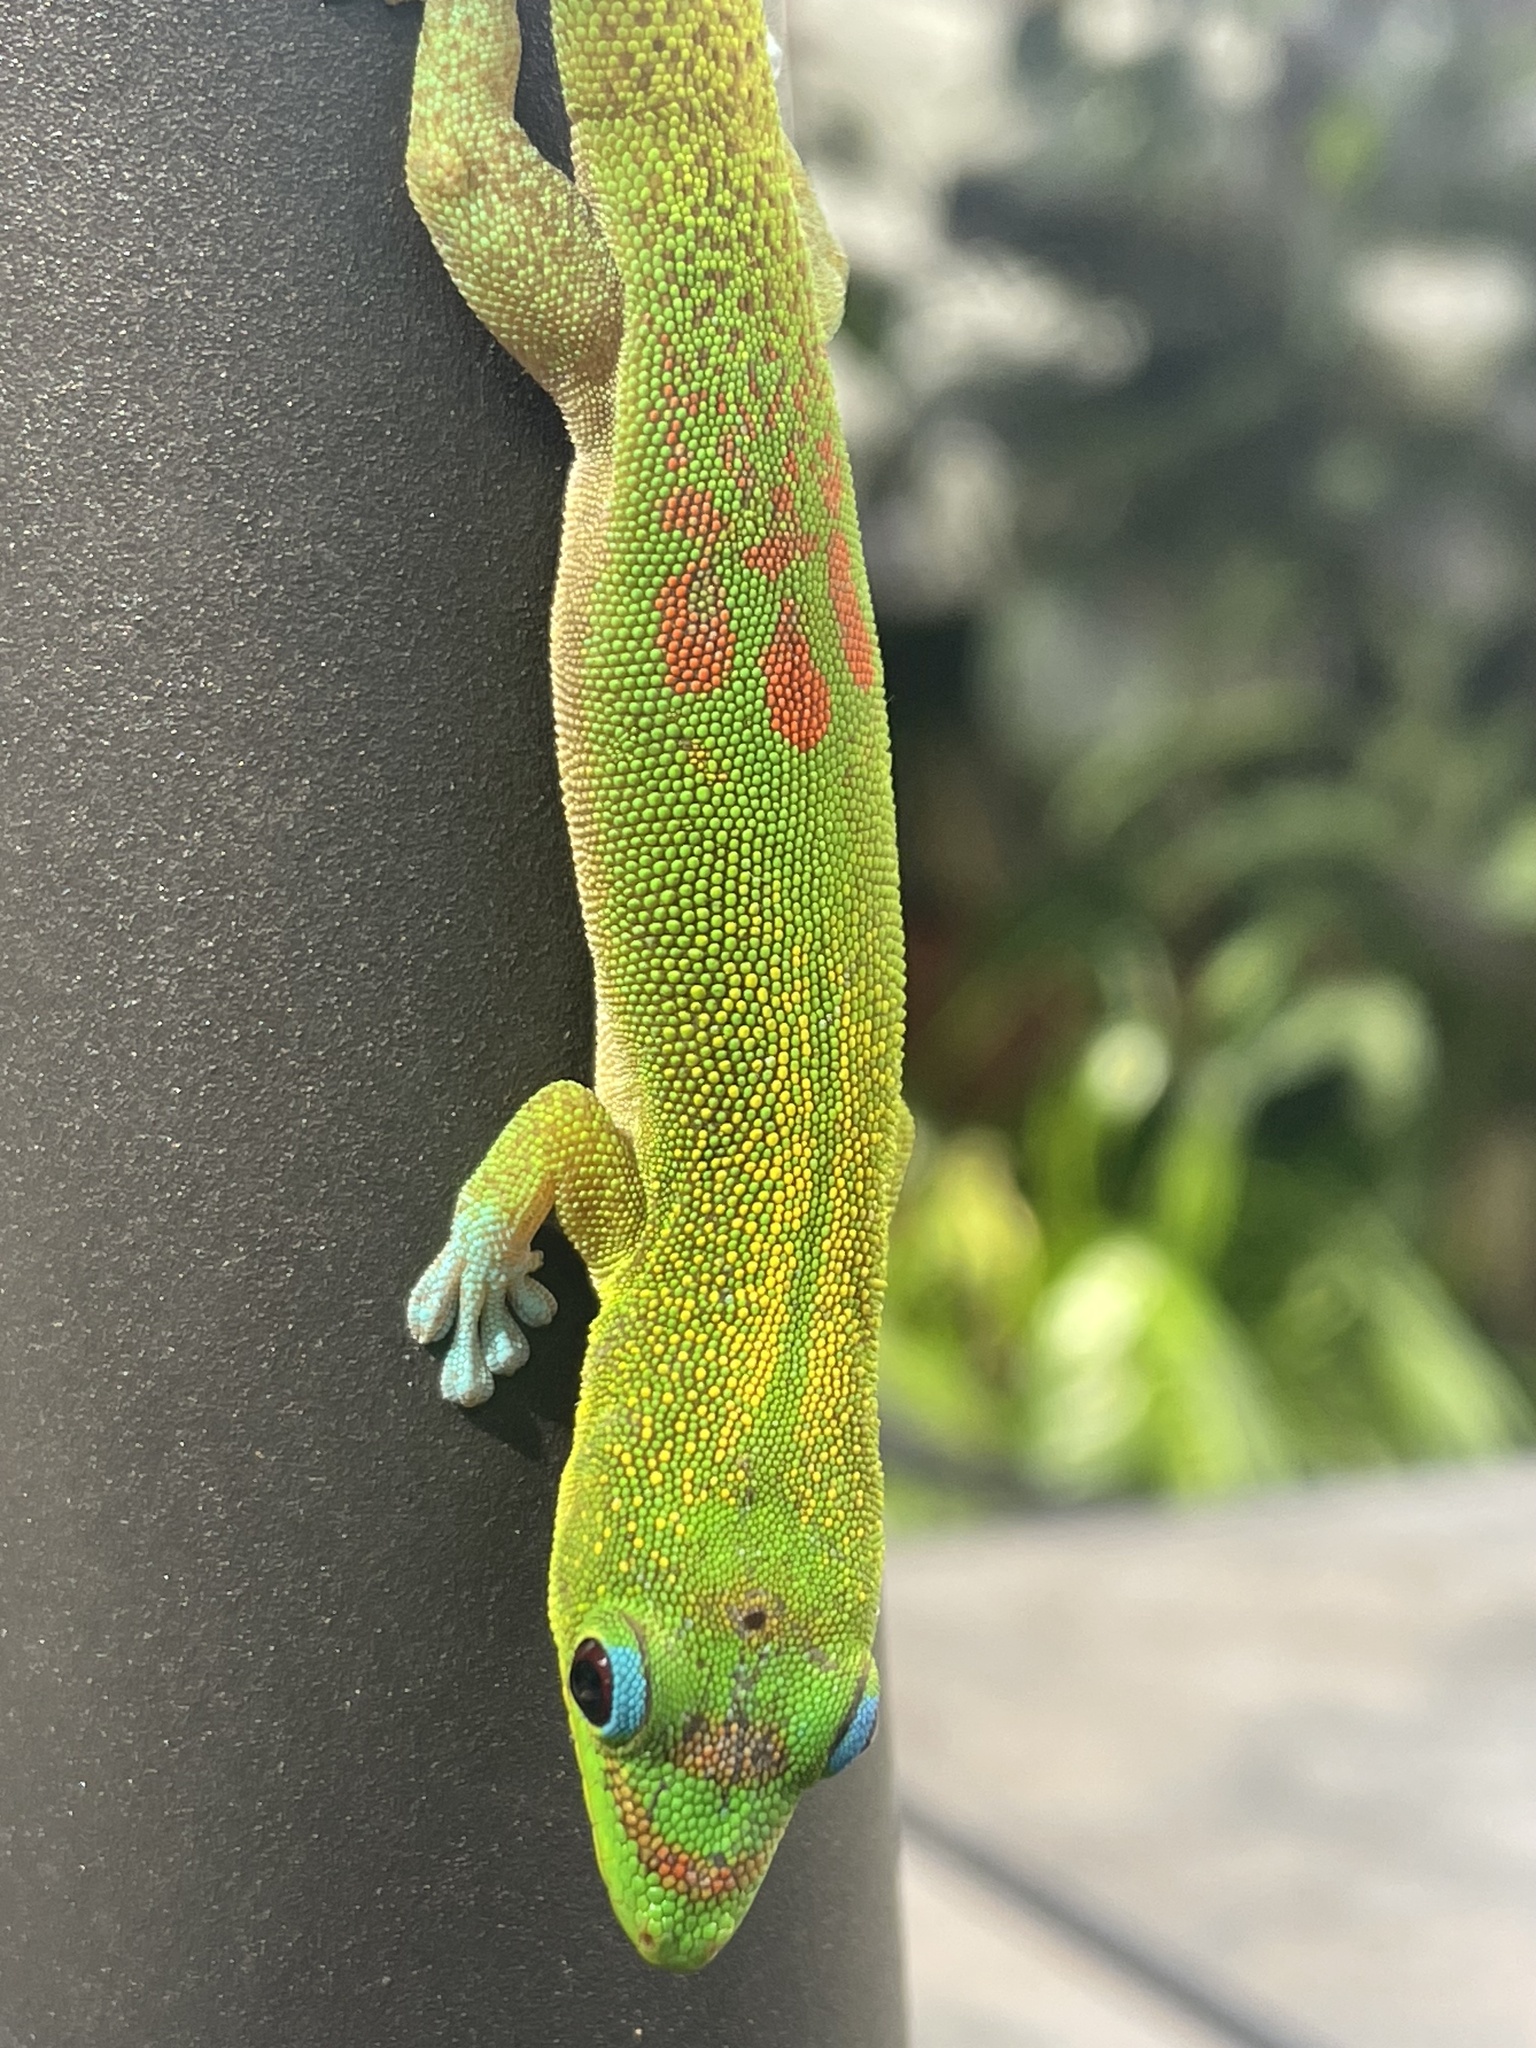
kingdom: Animalia
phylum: Chordata
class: Squamata
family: Gekkonidae
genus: Phelsuma
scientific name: Phelsuma laticauda
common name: Gold dust day gecko
